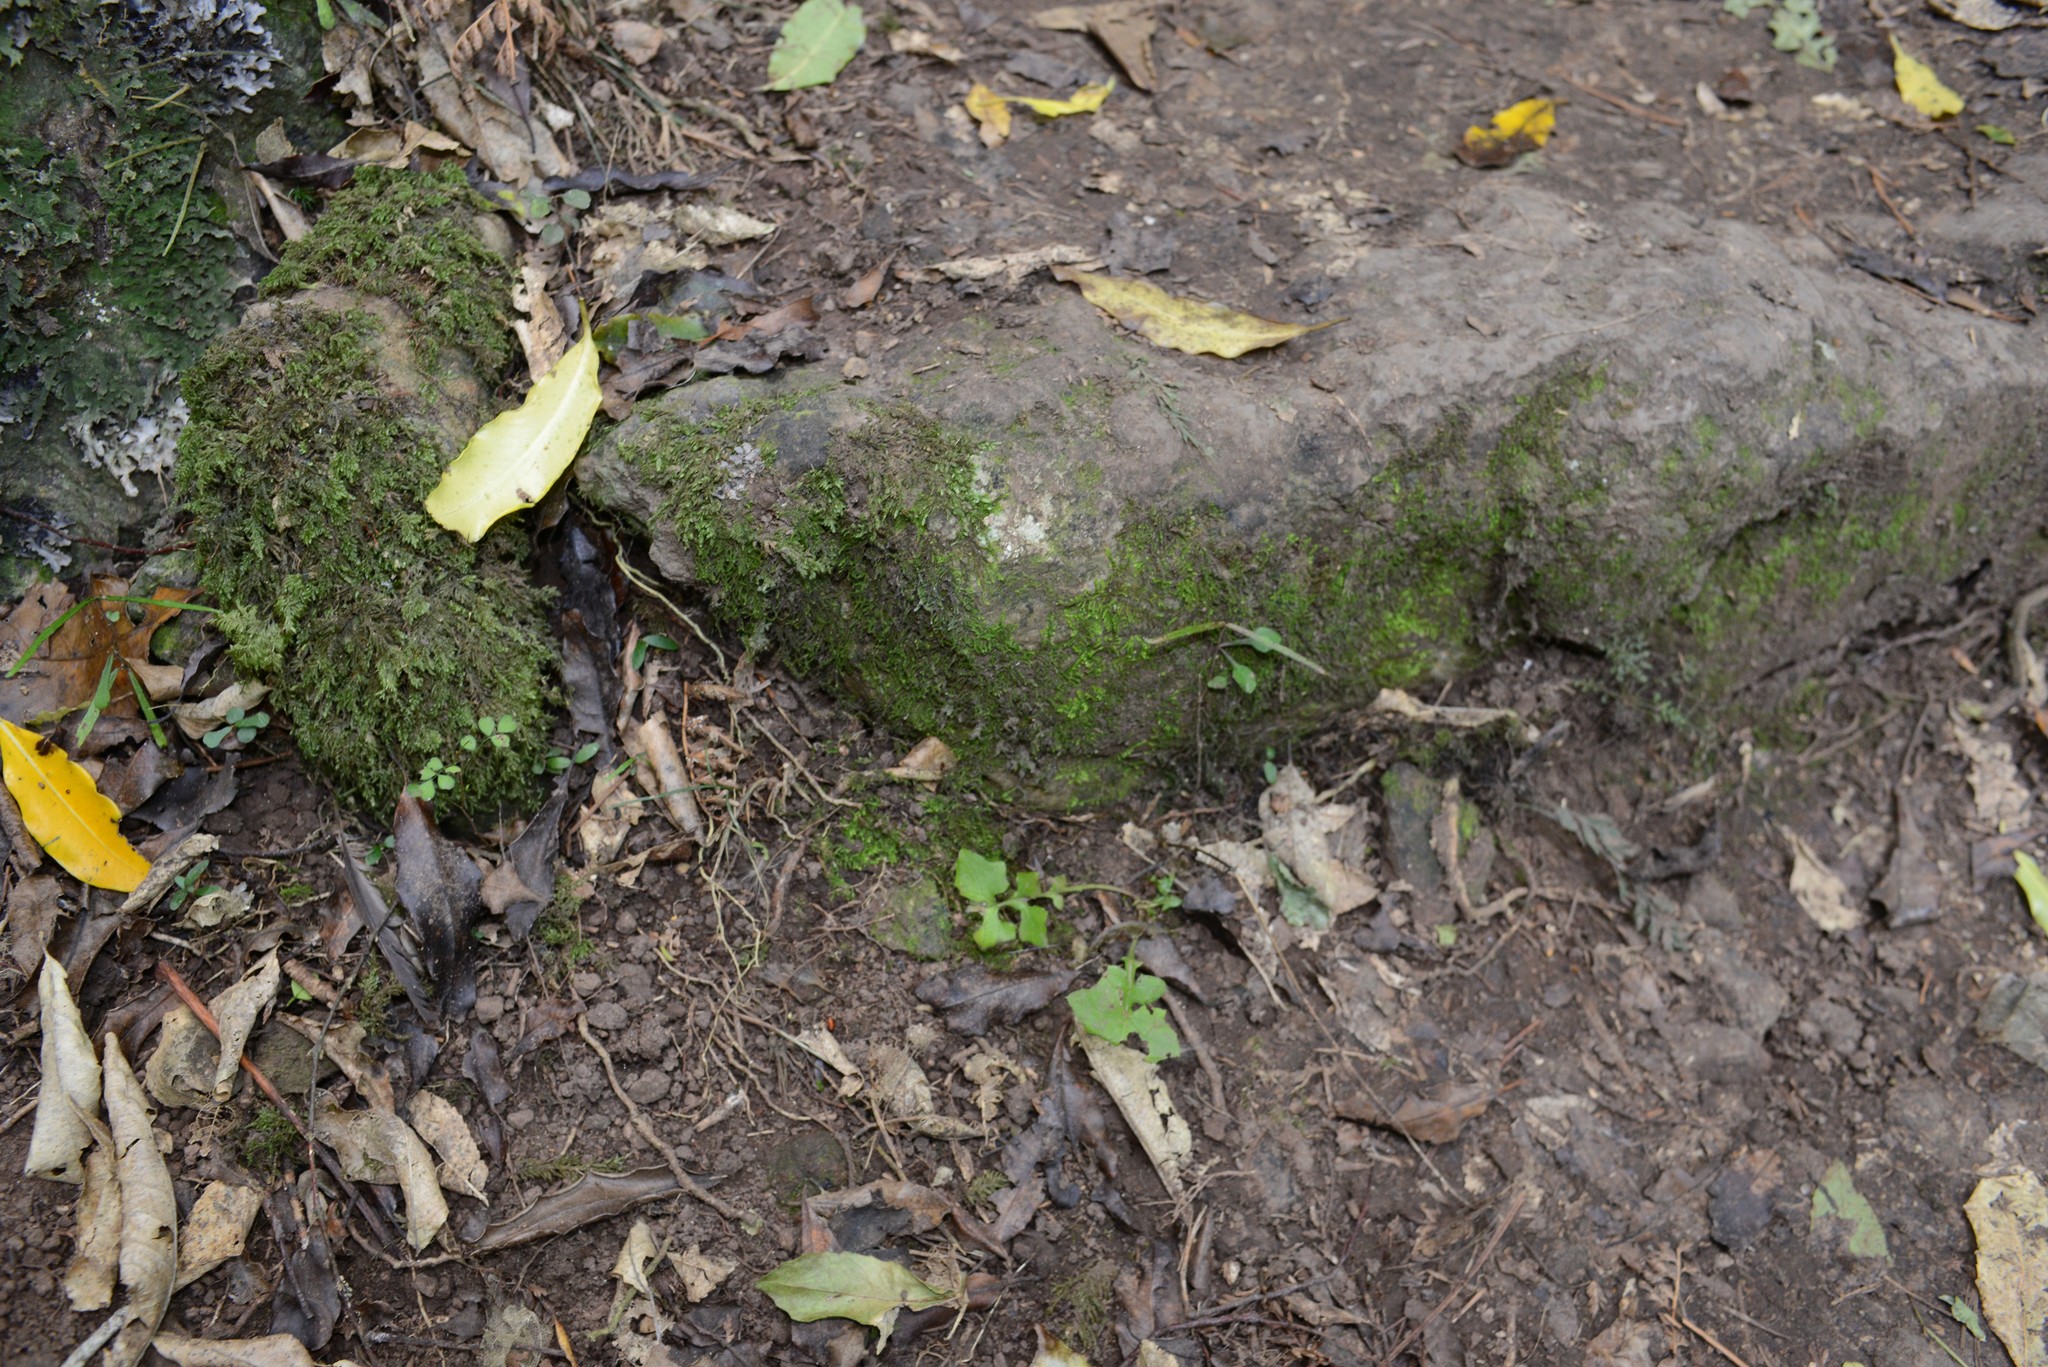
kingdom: Plantae
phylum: Tracheophyta
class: Magnoliopsida
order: Asterales
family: Asteraceae
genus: Mycelis
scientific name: Mycelis muralis
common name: Wall lettuce
